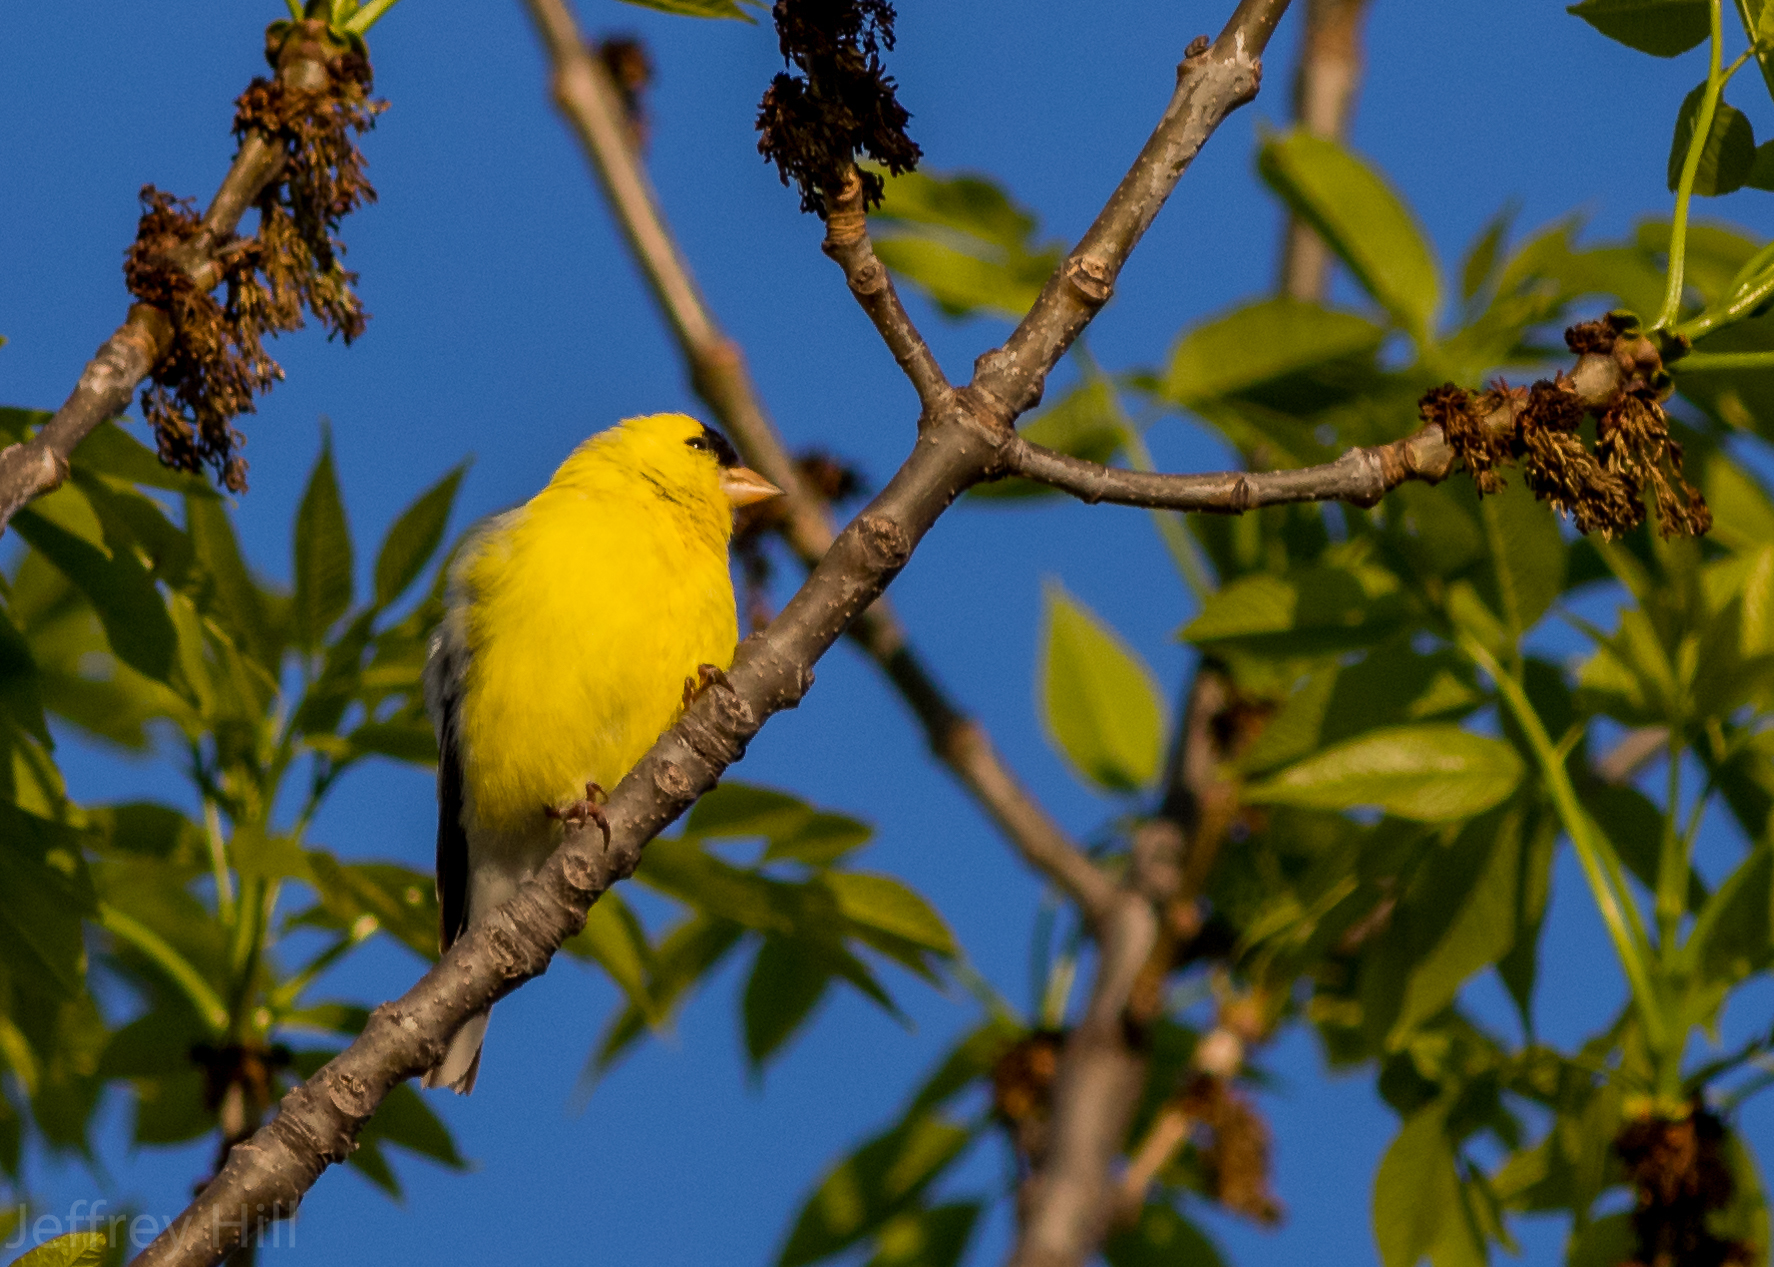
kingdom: Animalia
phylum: Chordata
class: Aves
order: Passeriformes
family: Fringillidae
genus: Spinus
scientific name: Spinus tristis
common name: American goldfinch
